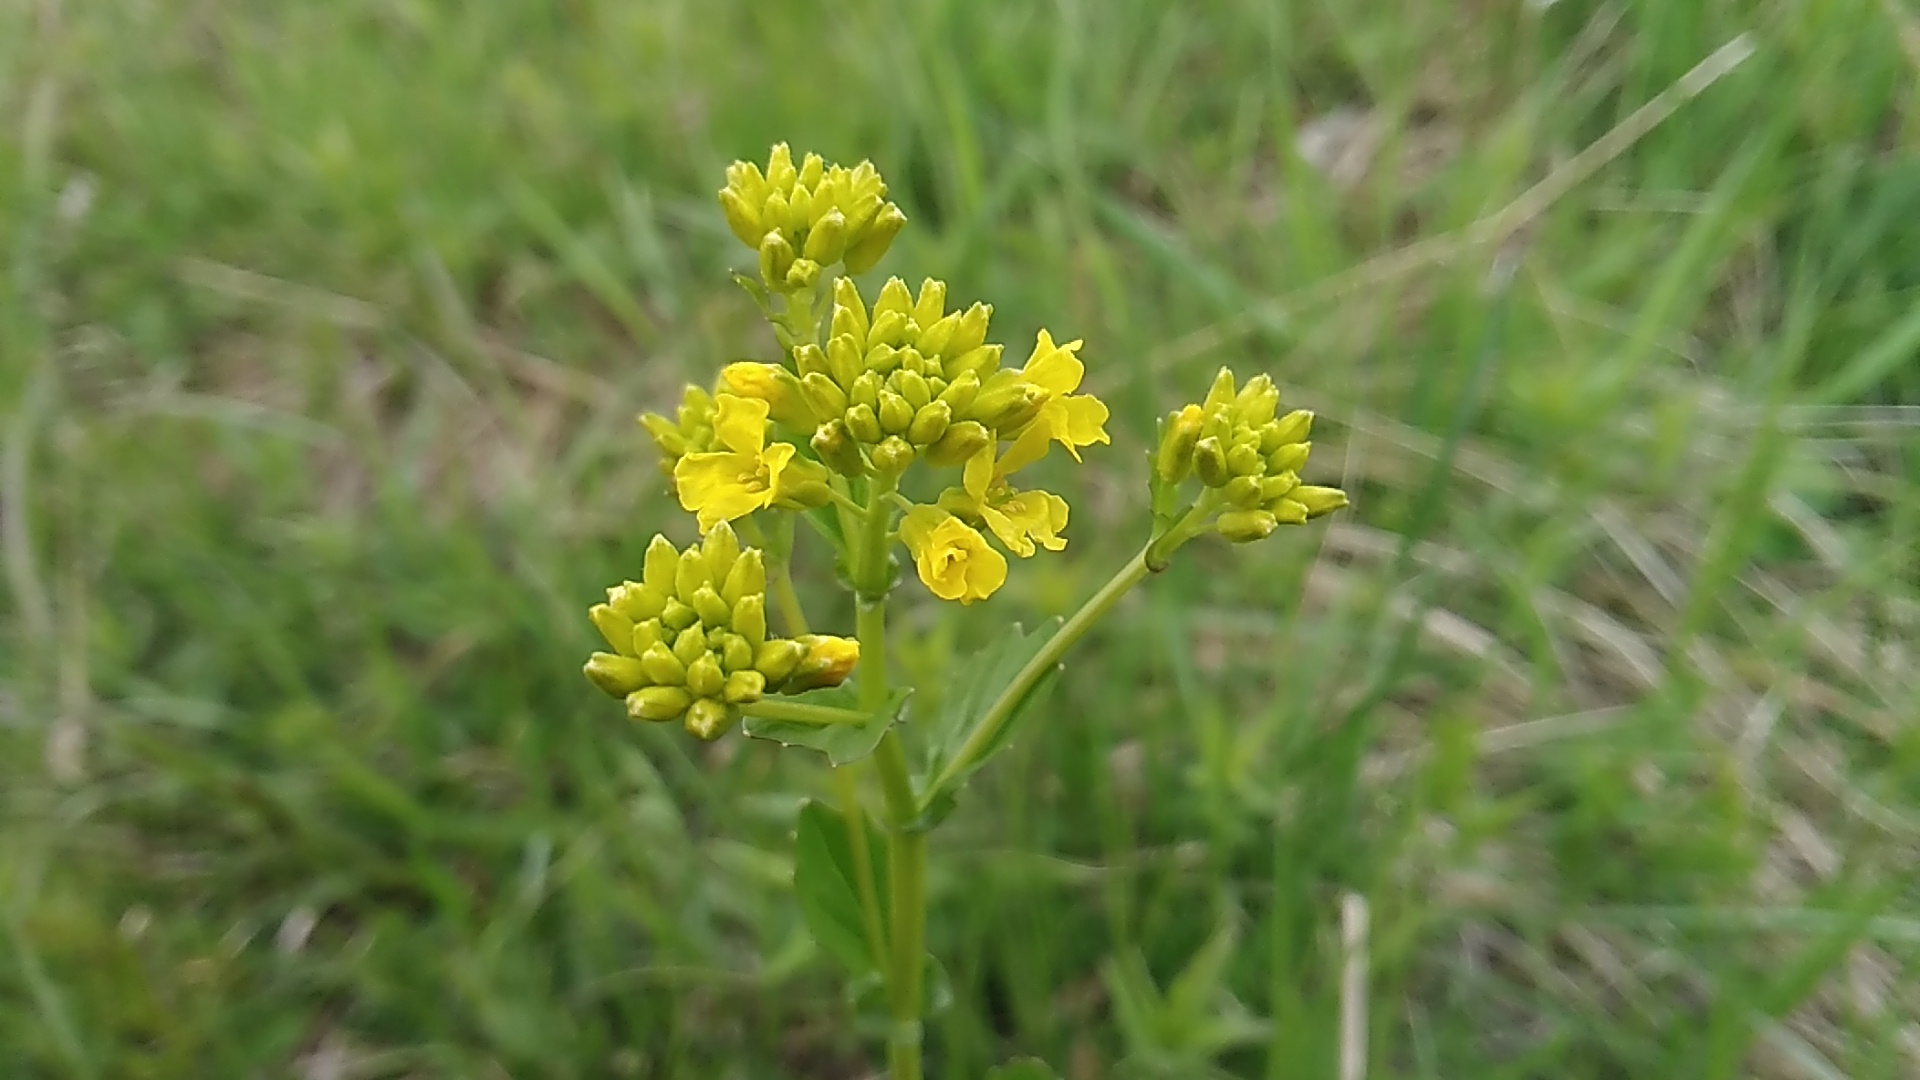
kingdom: Plantae
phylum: Tracheophyta
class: Magnoliopsida
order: Brassicales
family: Brassicaceae
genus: Barbarea
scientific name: Barbarea vulgaris
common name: Cressy-greens
